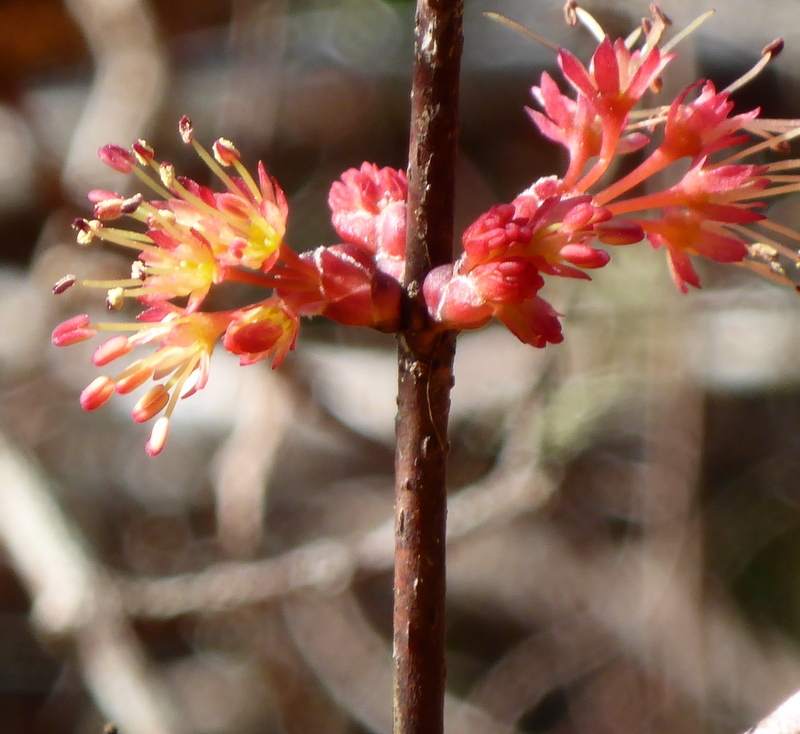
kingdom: Plantae
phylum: Tracheophyta
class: Magnoliopsida
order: Sapindales
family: Sapindaceae
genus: Acer
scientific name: Acer rubrum
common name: Red maple
